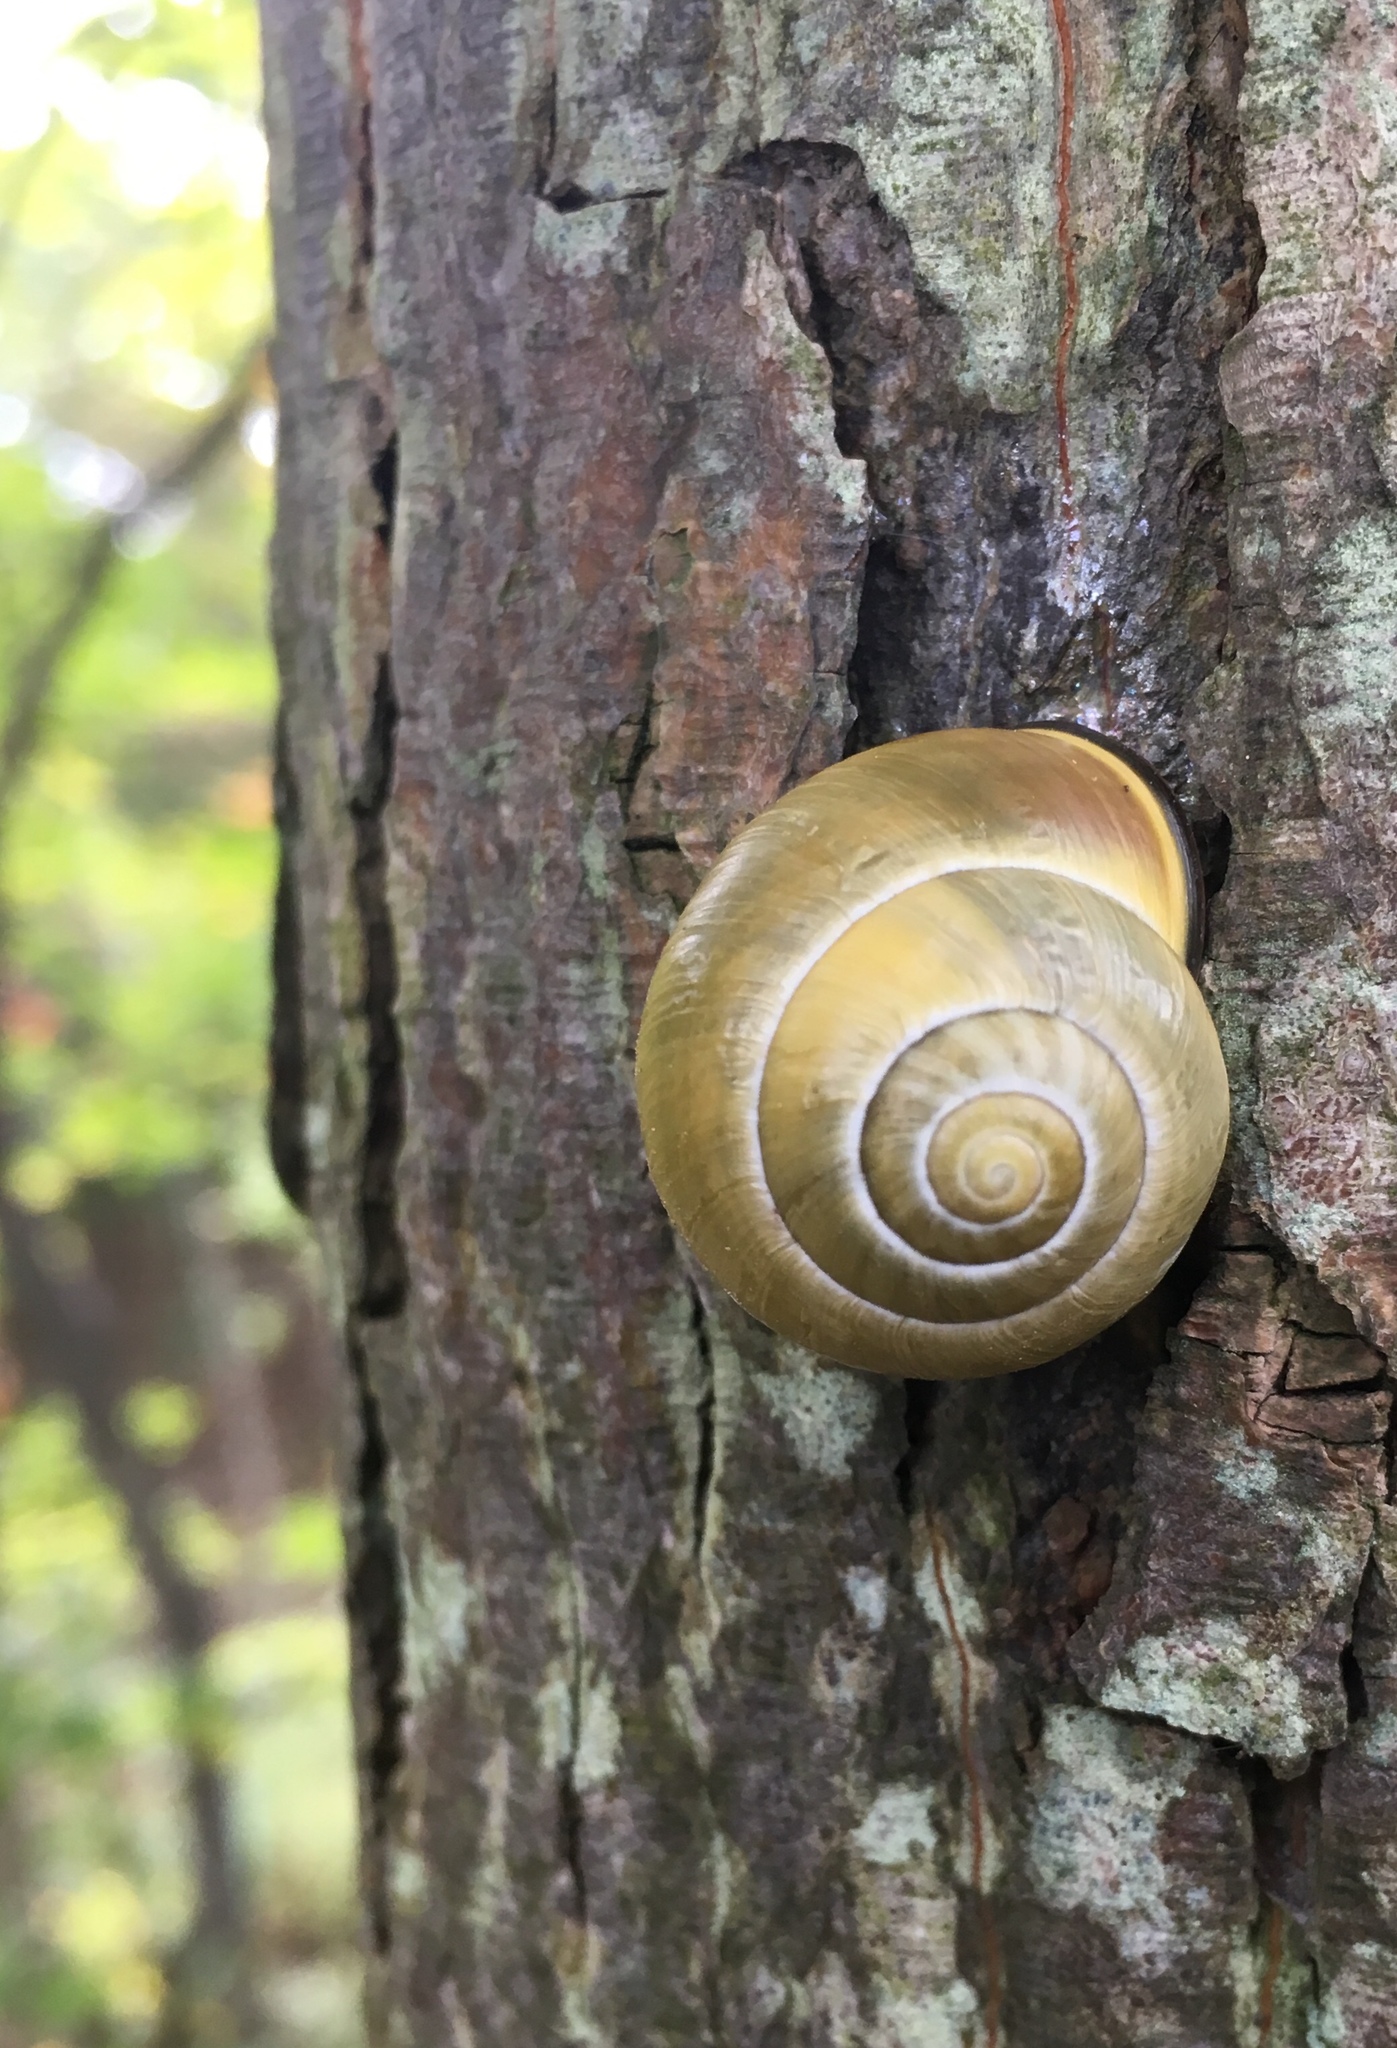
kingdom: Animalia
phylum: Mollusca
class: Gastropoda
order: Stylommatophora
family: Helicidae
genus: Cepaea
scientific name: Cepaea nemoralis
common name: Grovesnail
